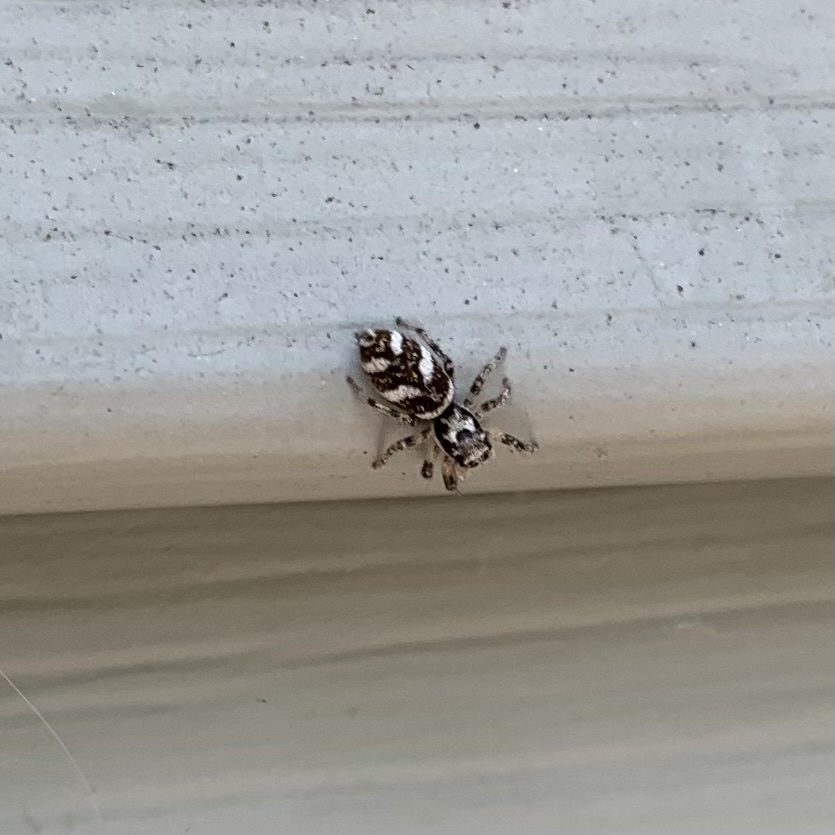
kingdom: Animalia
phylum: Arthropoda
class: Arachnida
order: Araneae
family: Salticidae
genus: Salticus
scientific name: Salticus scenicus
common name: Zebra jumper
